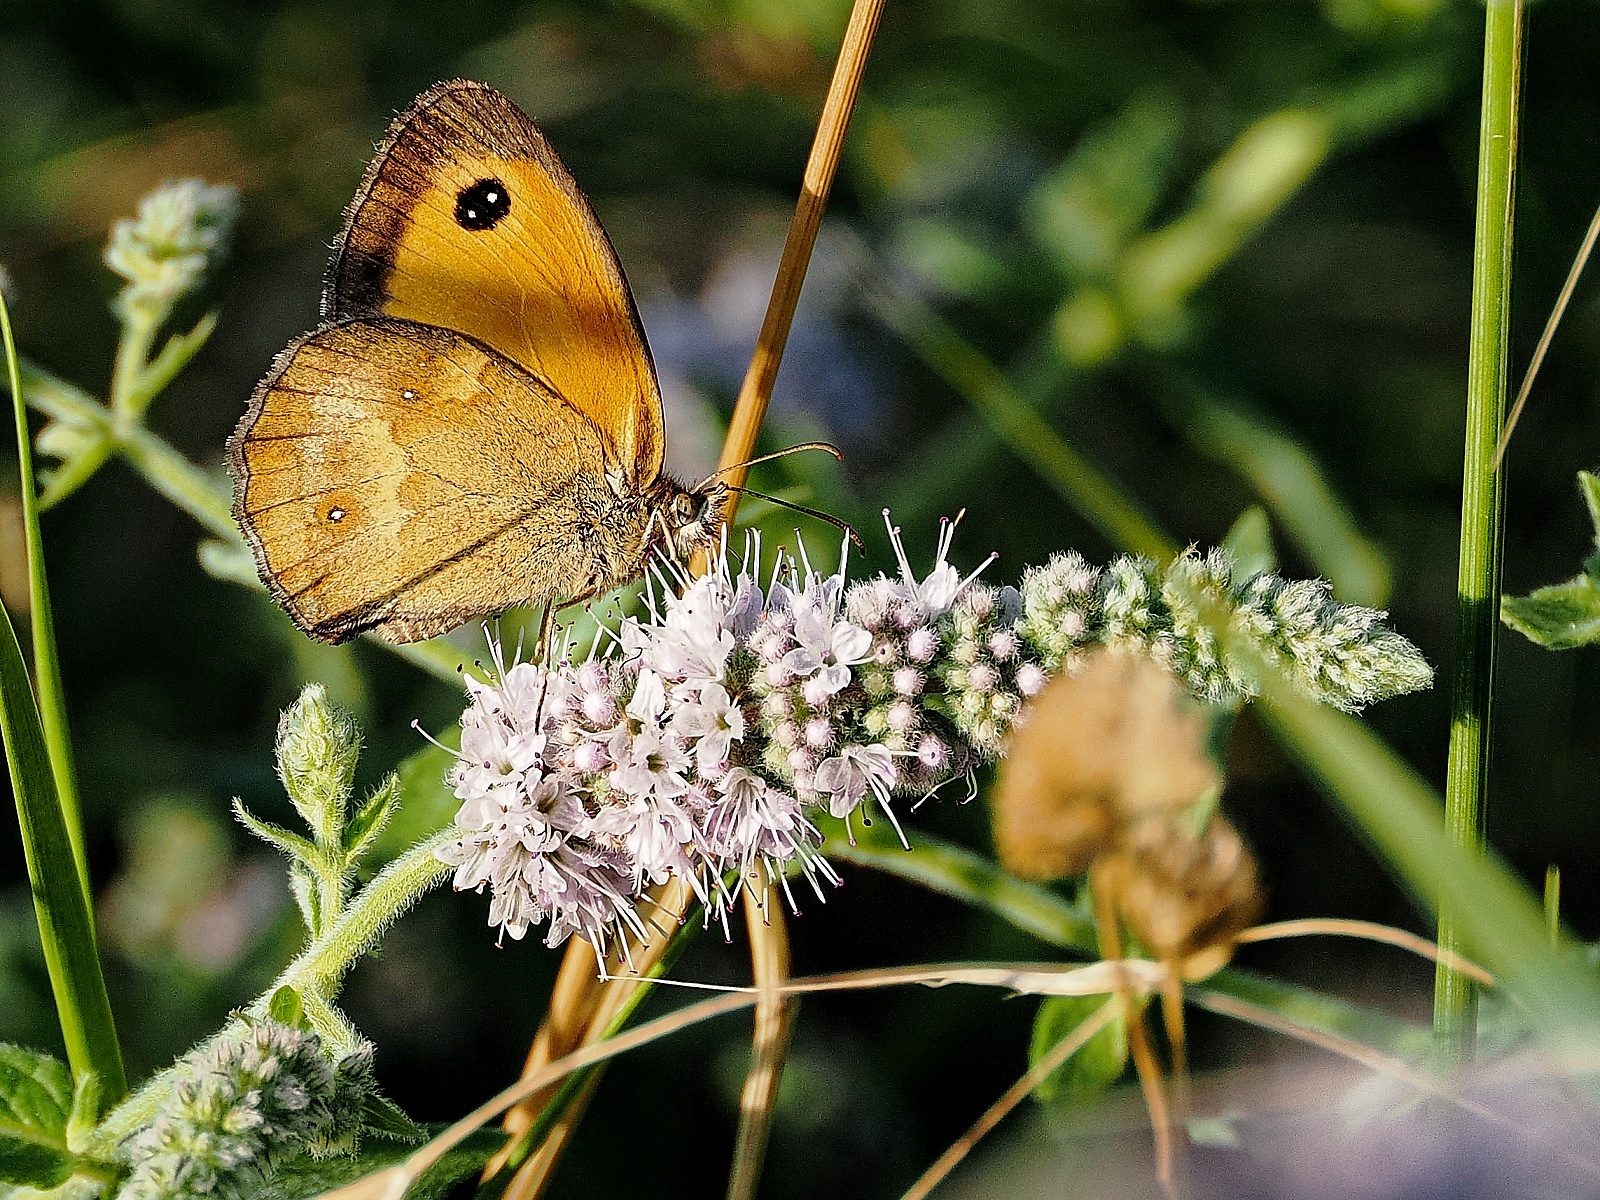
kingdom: Animalia
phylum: Arthropoda
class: Insecta
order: Lepidoptera
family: Nymphalidae
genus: Pyronia
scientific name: Pyronia tithonus
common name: Gatekeeper
